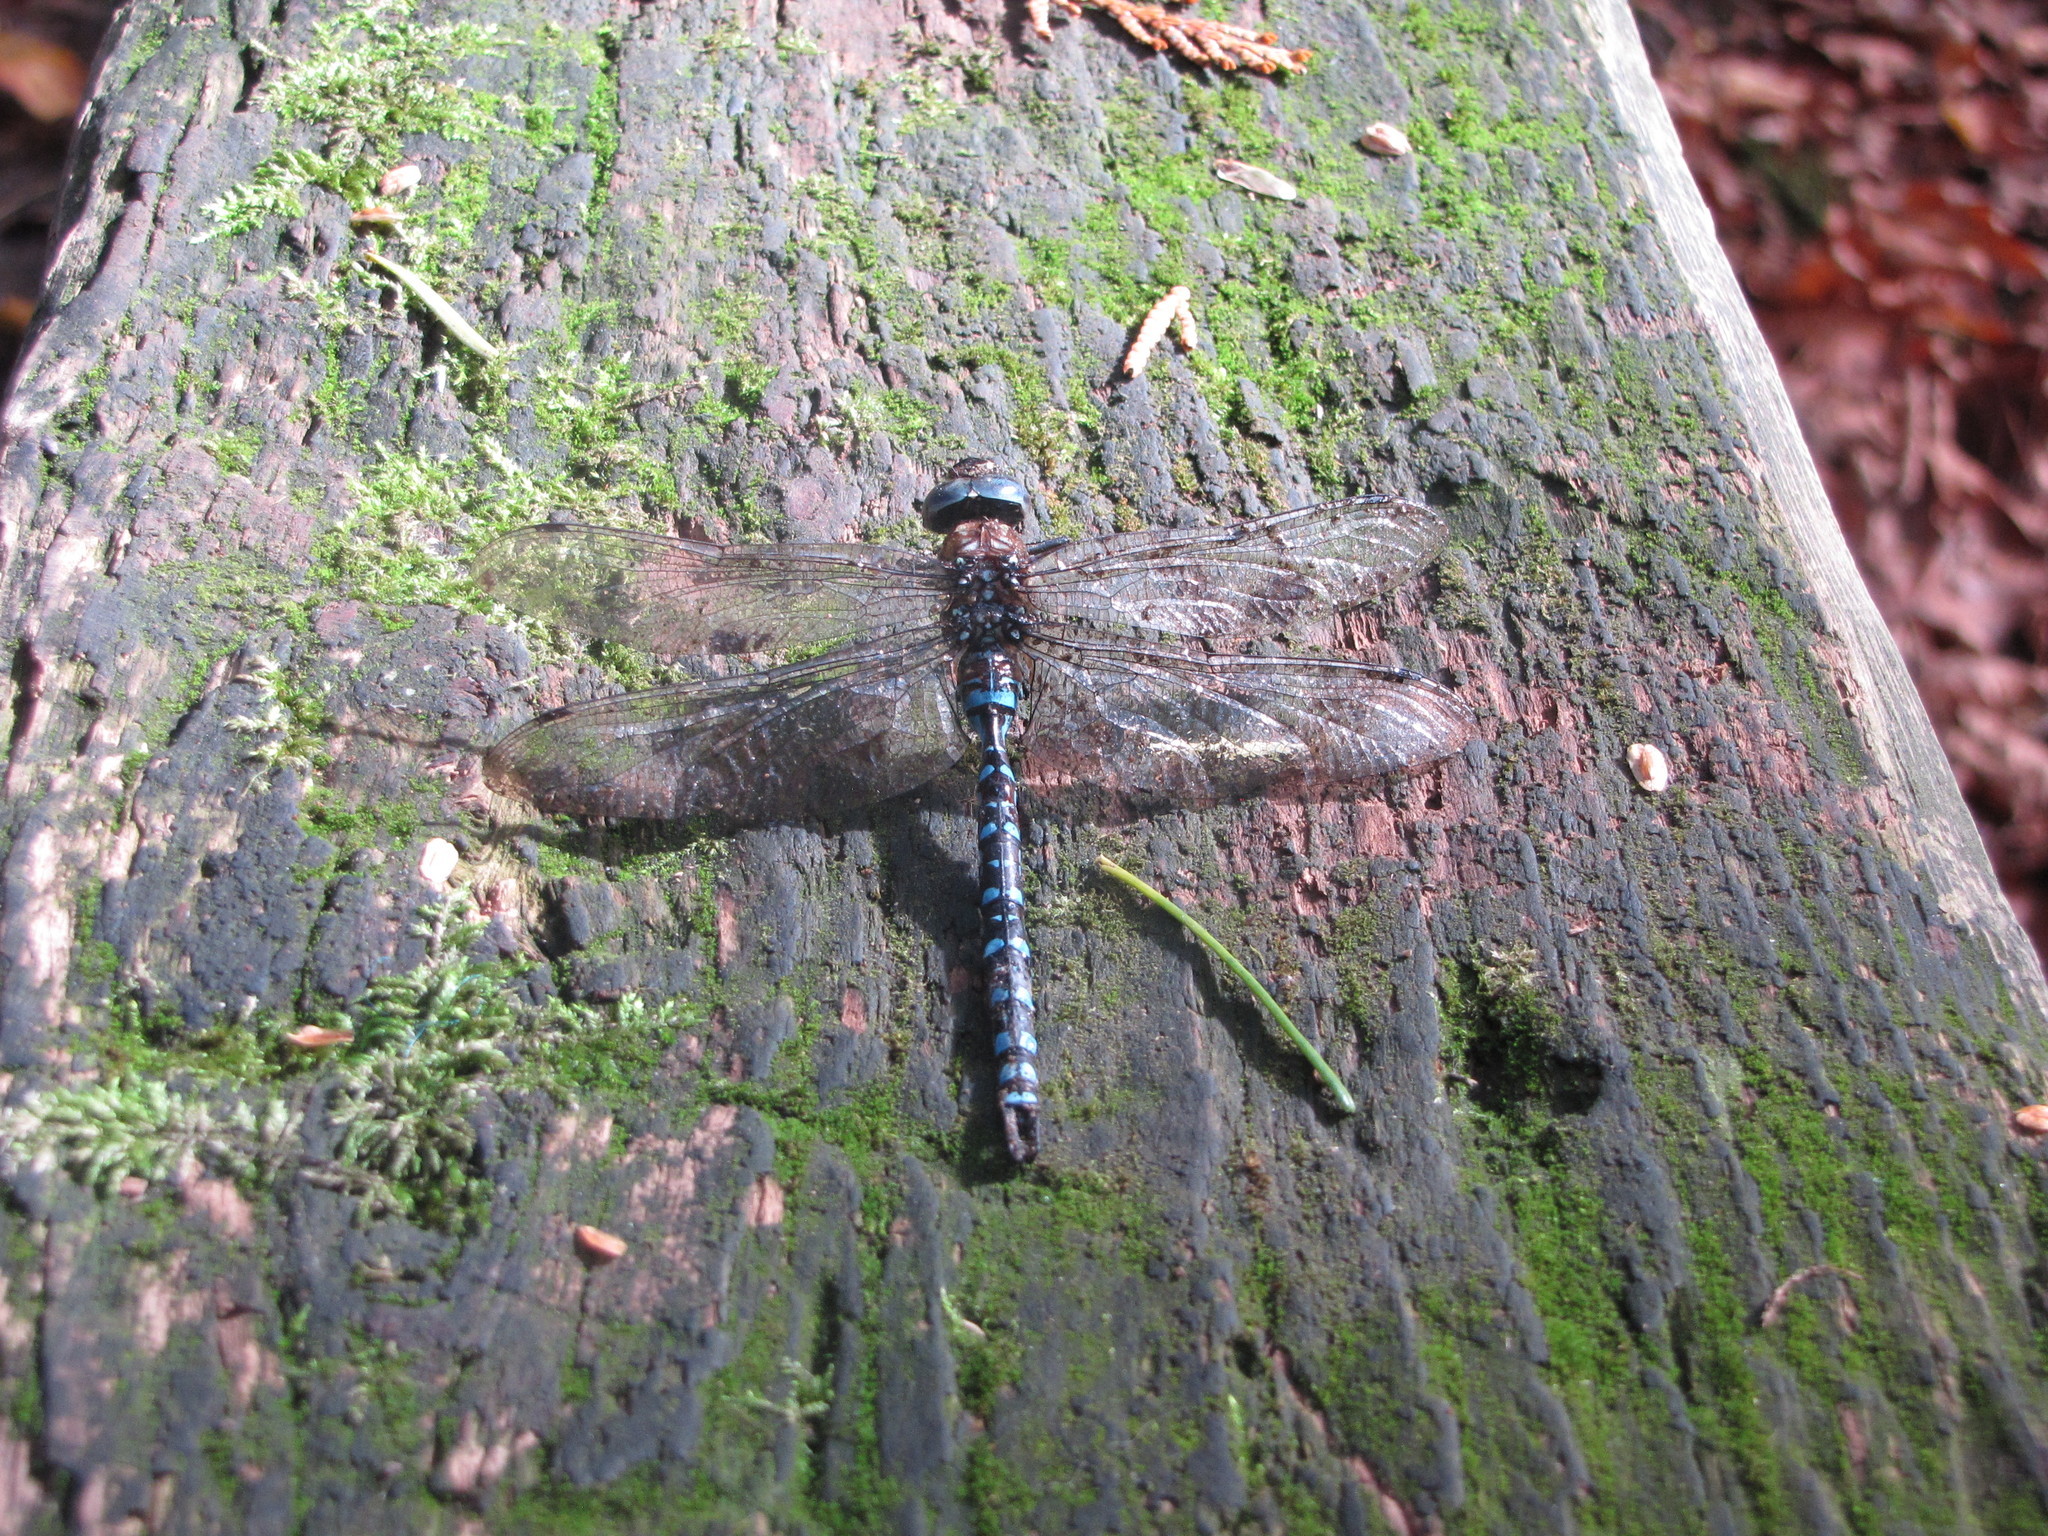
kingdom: Animalia
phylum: Arthropoda
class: Insecta
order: Odonata
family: Aeshnidae
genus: Aeshna
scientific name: Aeshna palmata
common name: Paddle-tailed darner
